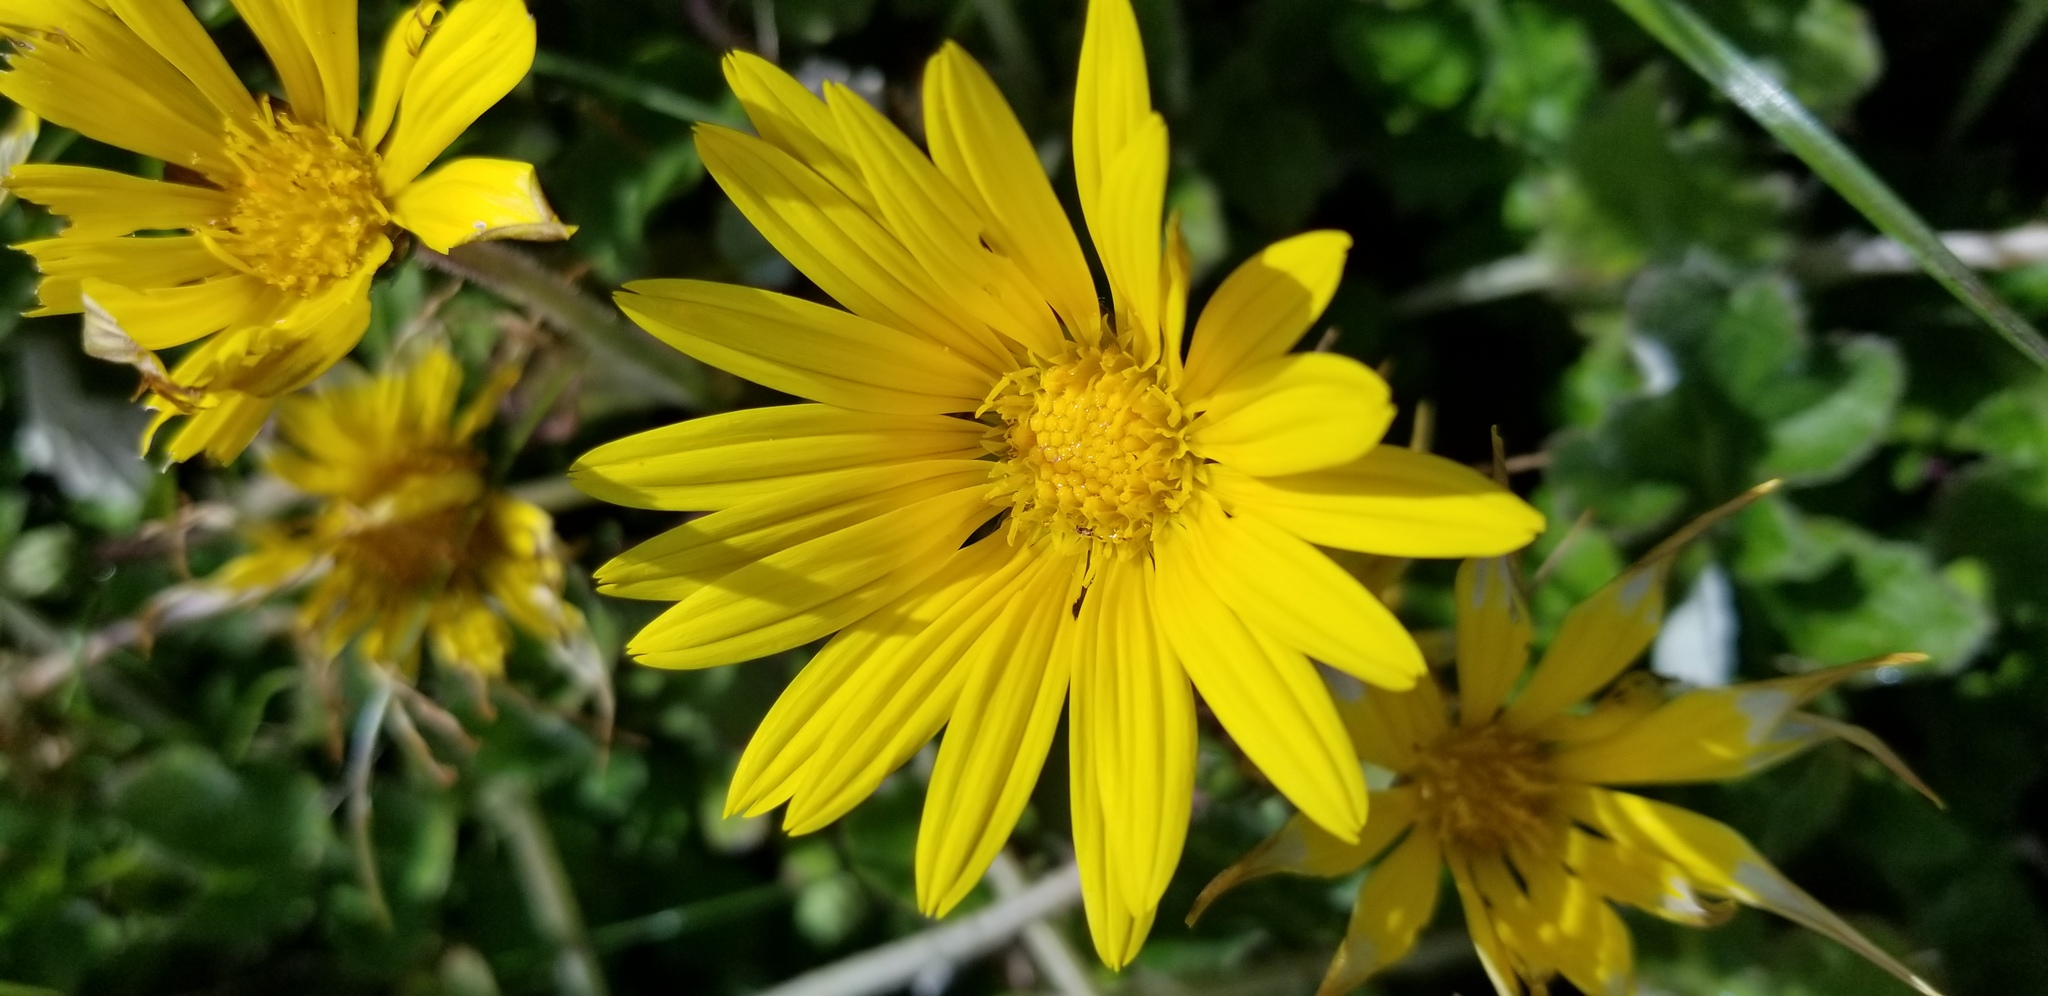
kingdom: Plantae
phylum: Tracheophyta
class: Magnoliopsida
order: Asterales
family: Asteraceae
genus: Arctotheca
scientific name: Arctotheca prostrata
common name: Capeweed
